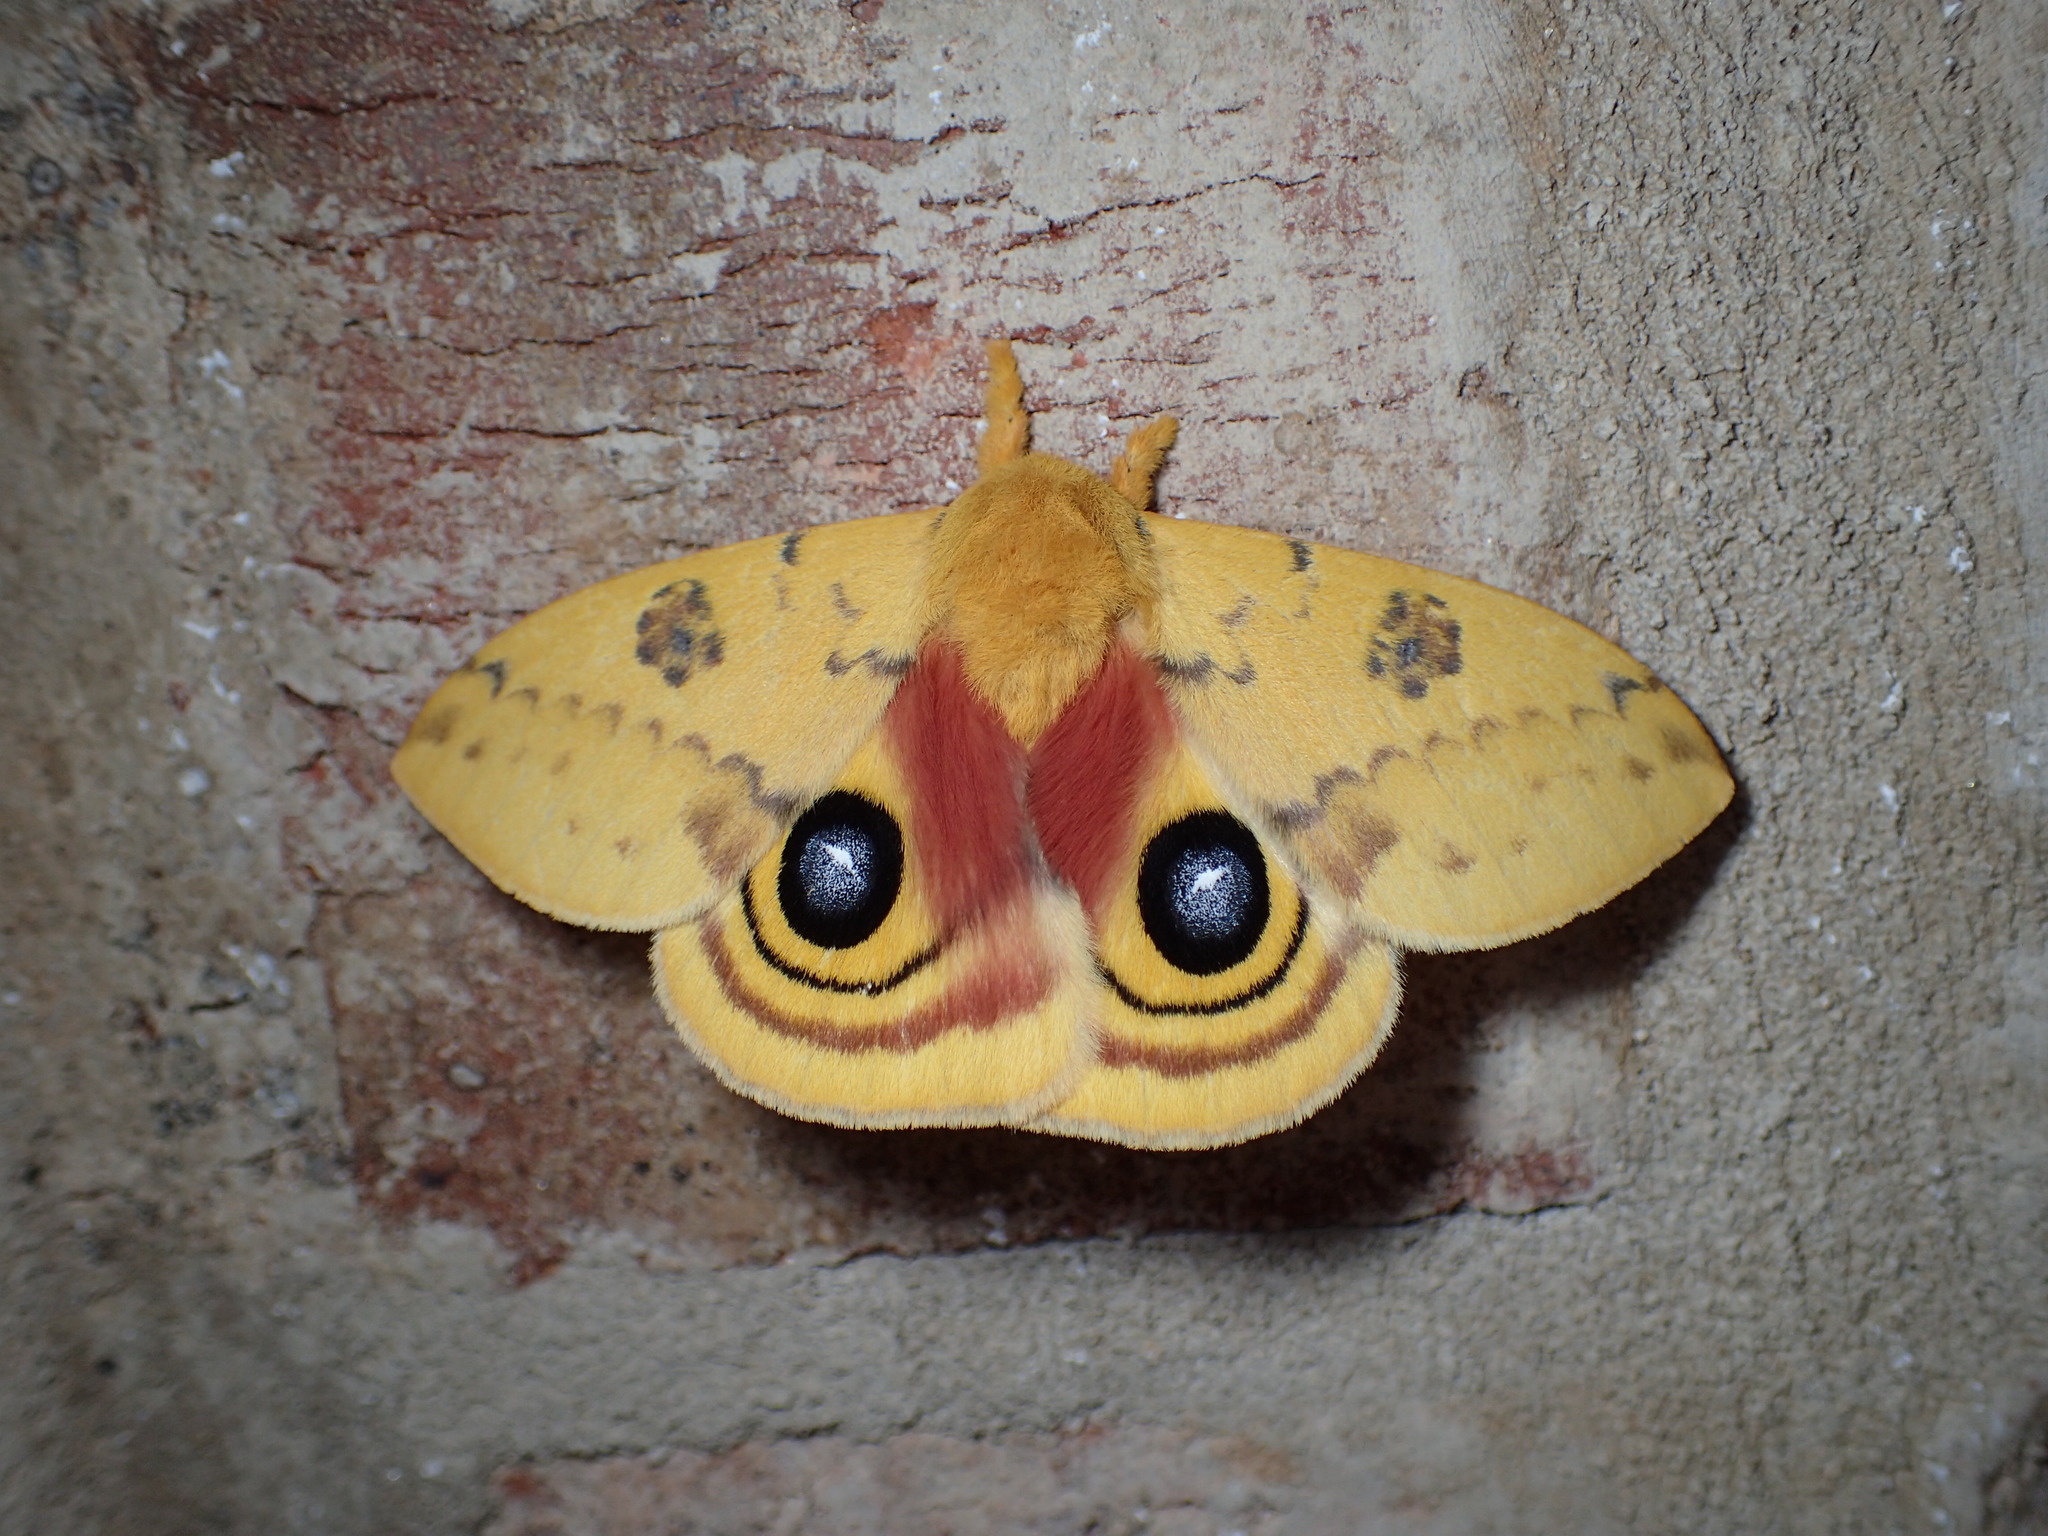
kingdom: Animalia
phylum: Arthropoda
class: Insecta
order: Lepidoptera
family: Saturniidae
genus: Automeris
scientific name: Automeris io
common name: Io moth
